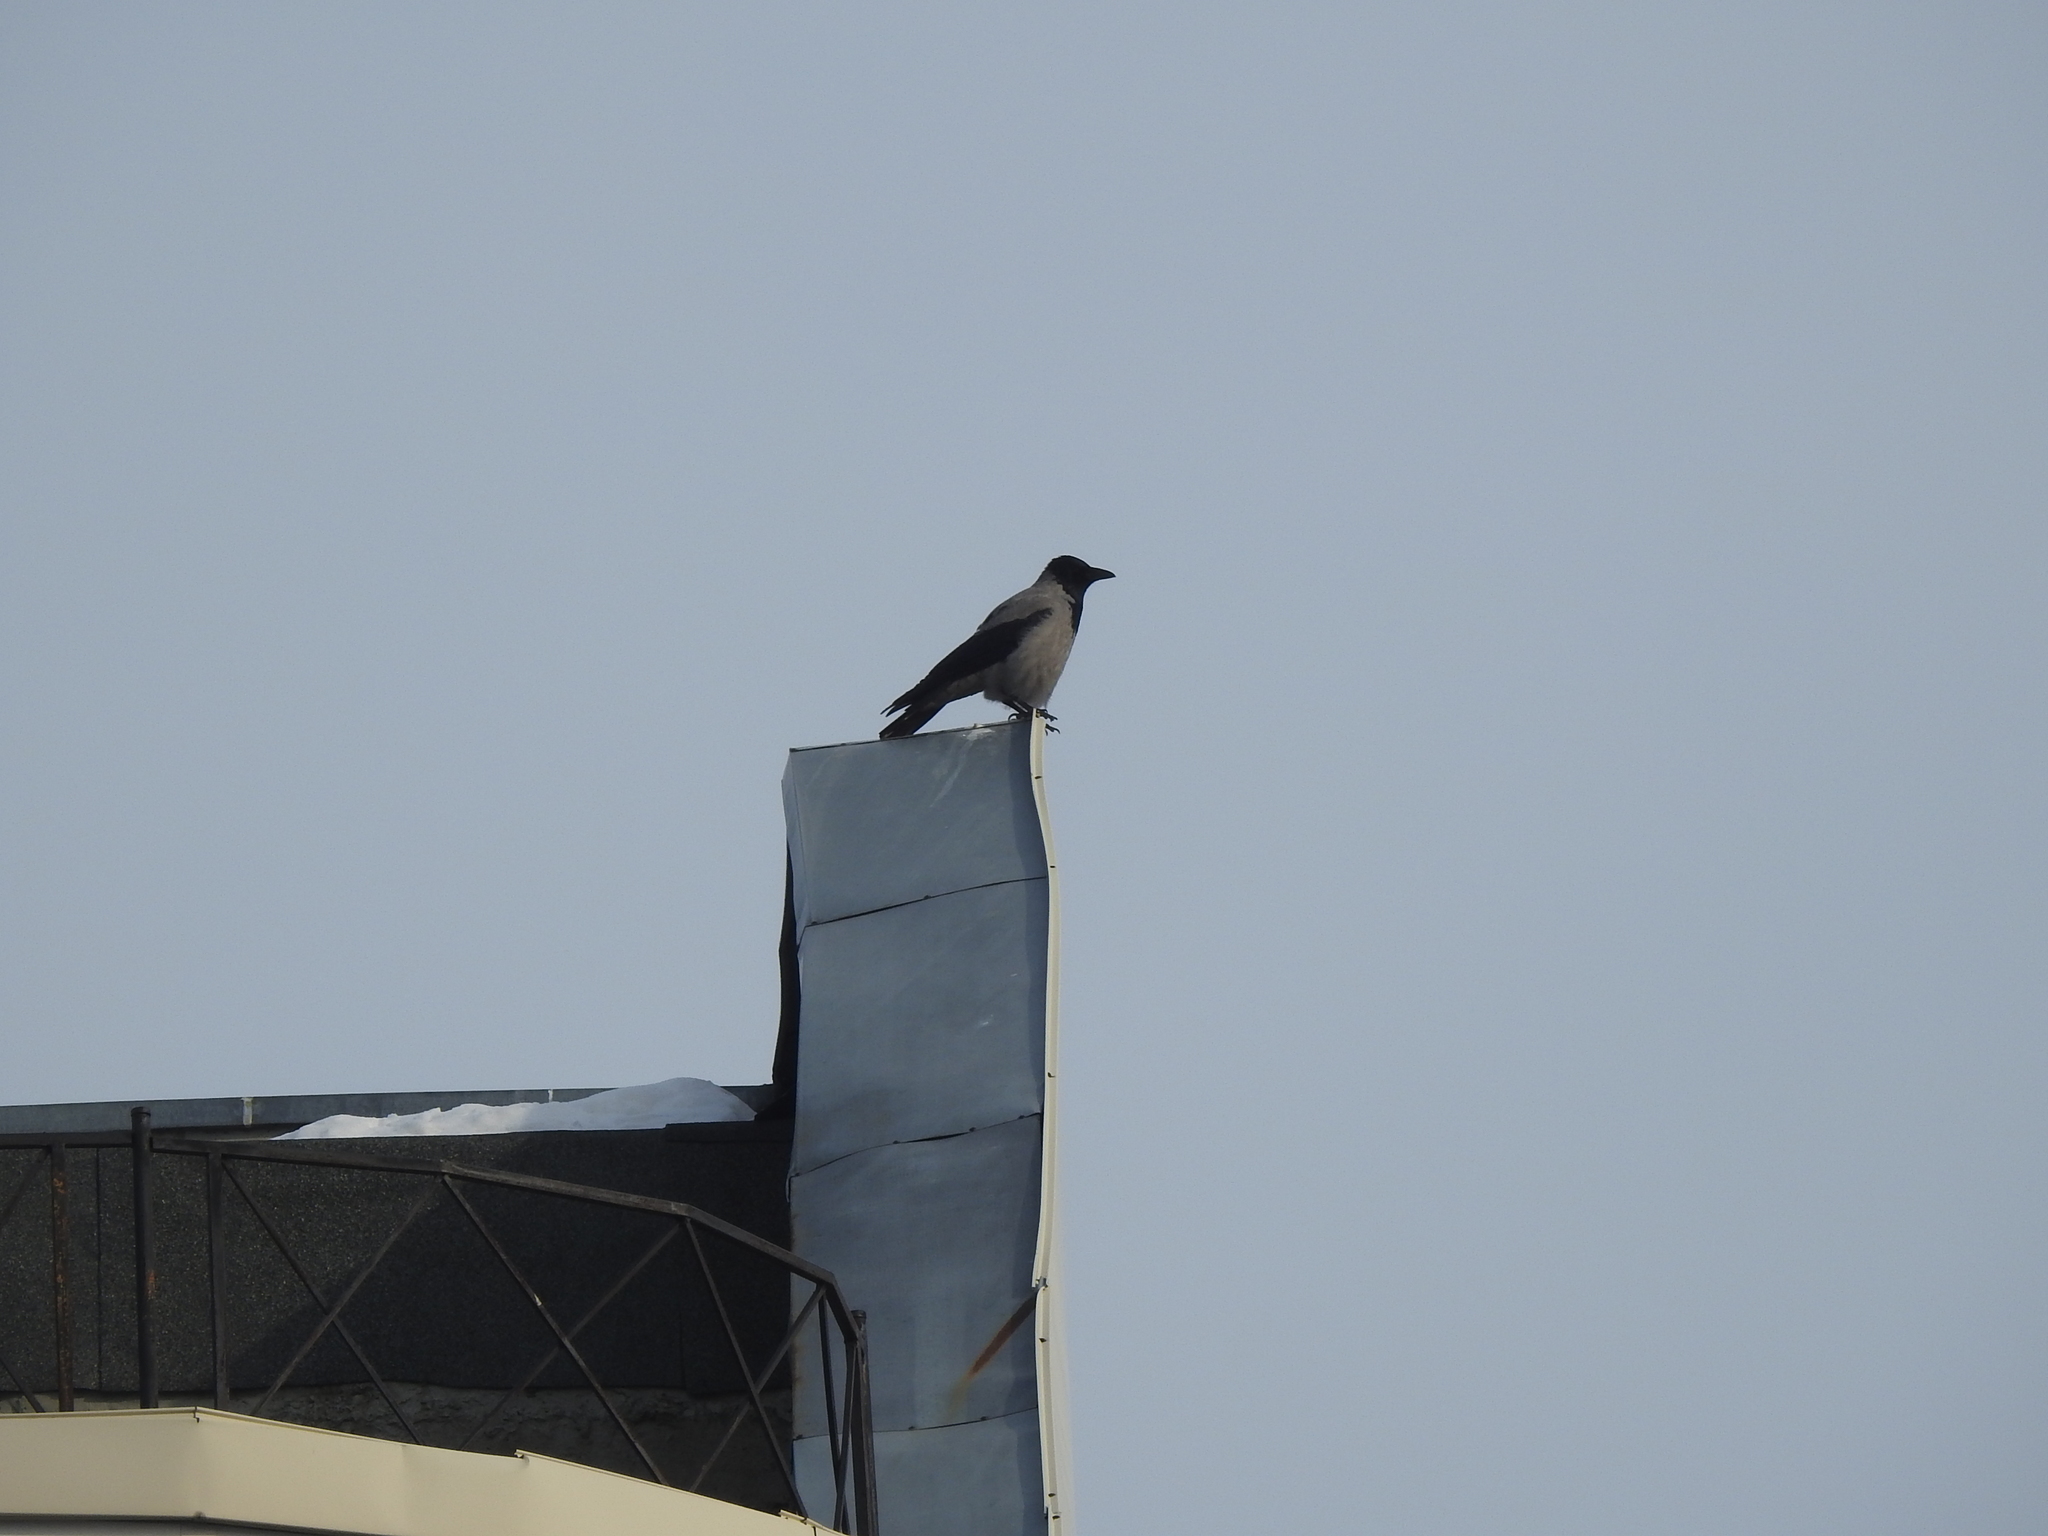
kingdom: Animalia
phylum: Chordata
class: Aves
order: Passeriformes
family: Corvidae
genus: Corvus
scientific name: Corvus cornix
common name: Hooded crow
